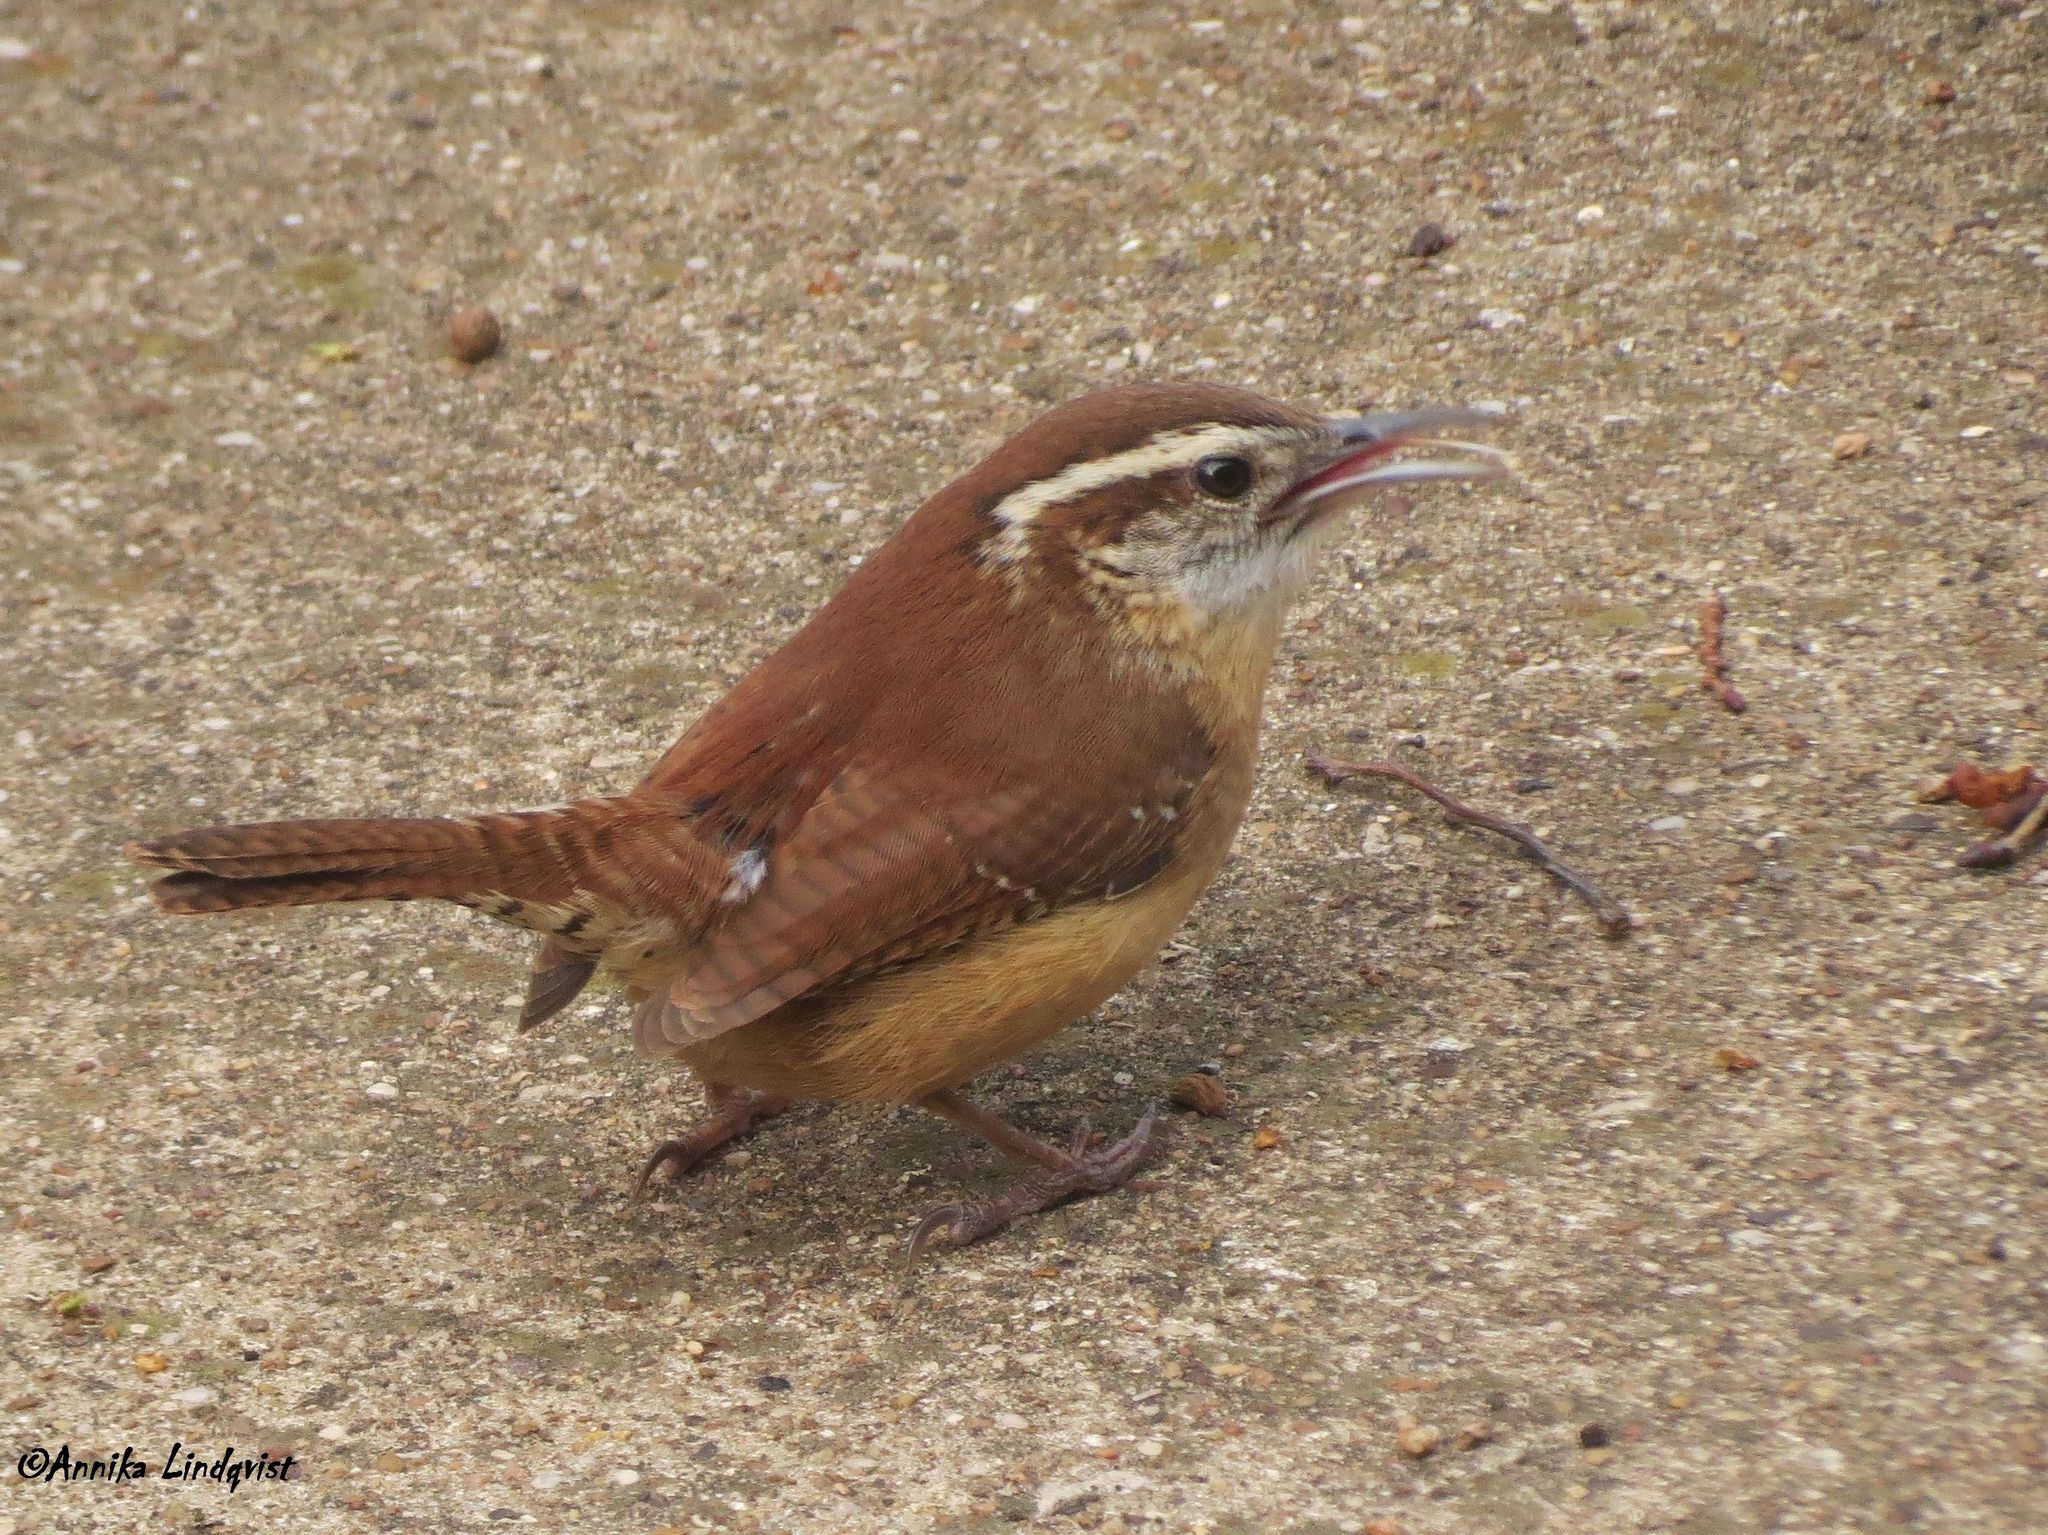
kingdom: Animalia
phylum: Chordata
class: Aves
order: Passeriformes
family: Troglodytidae
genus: Thryothorus
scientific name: Thryothorus ludovicianus
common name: Carolina wren
